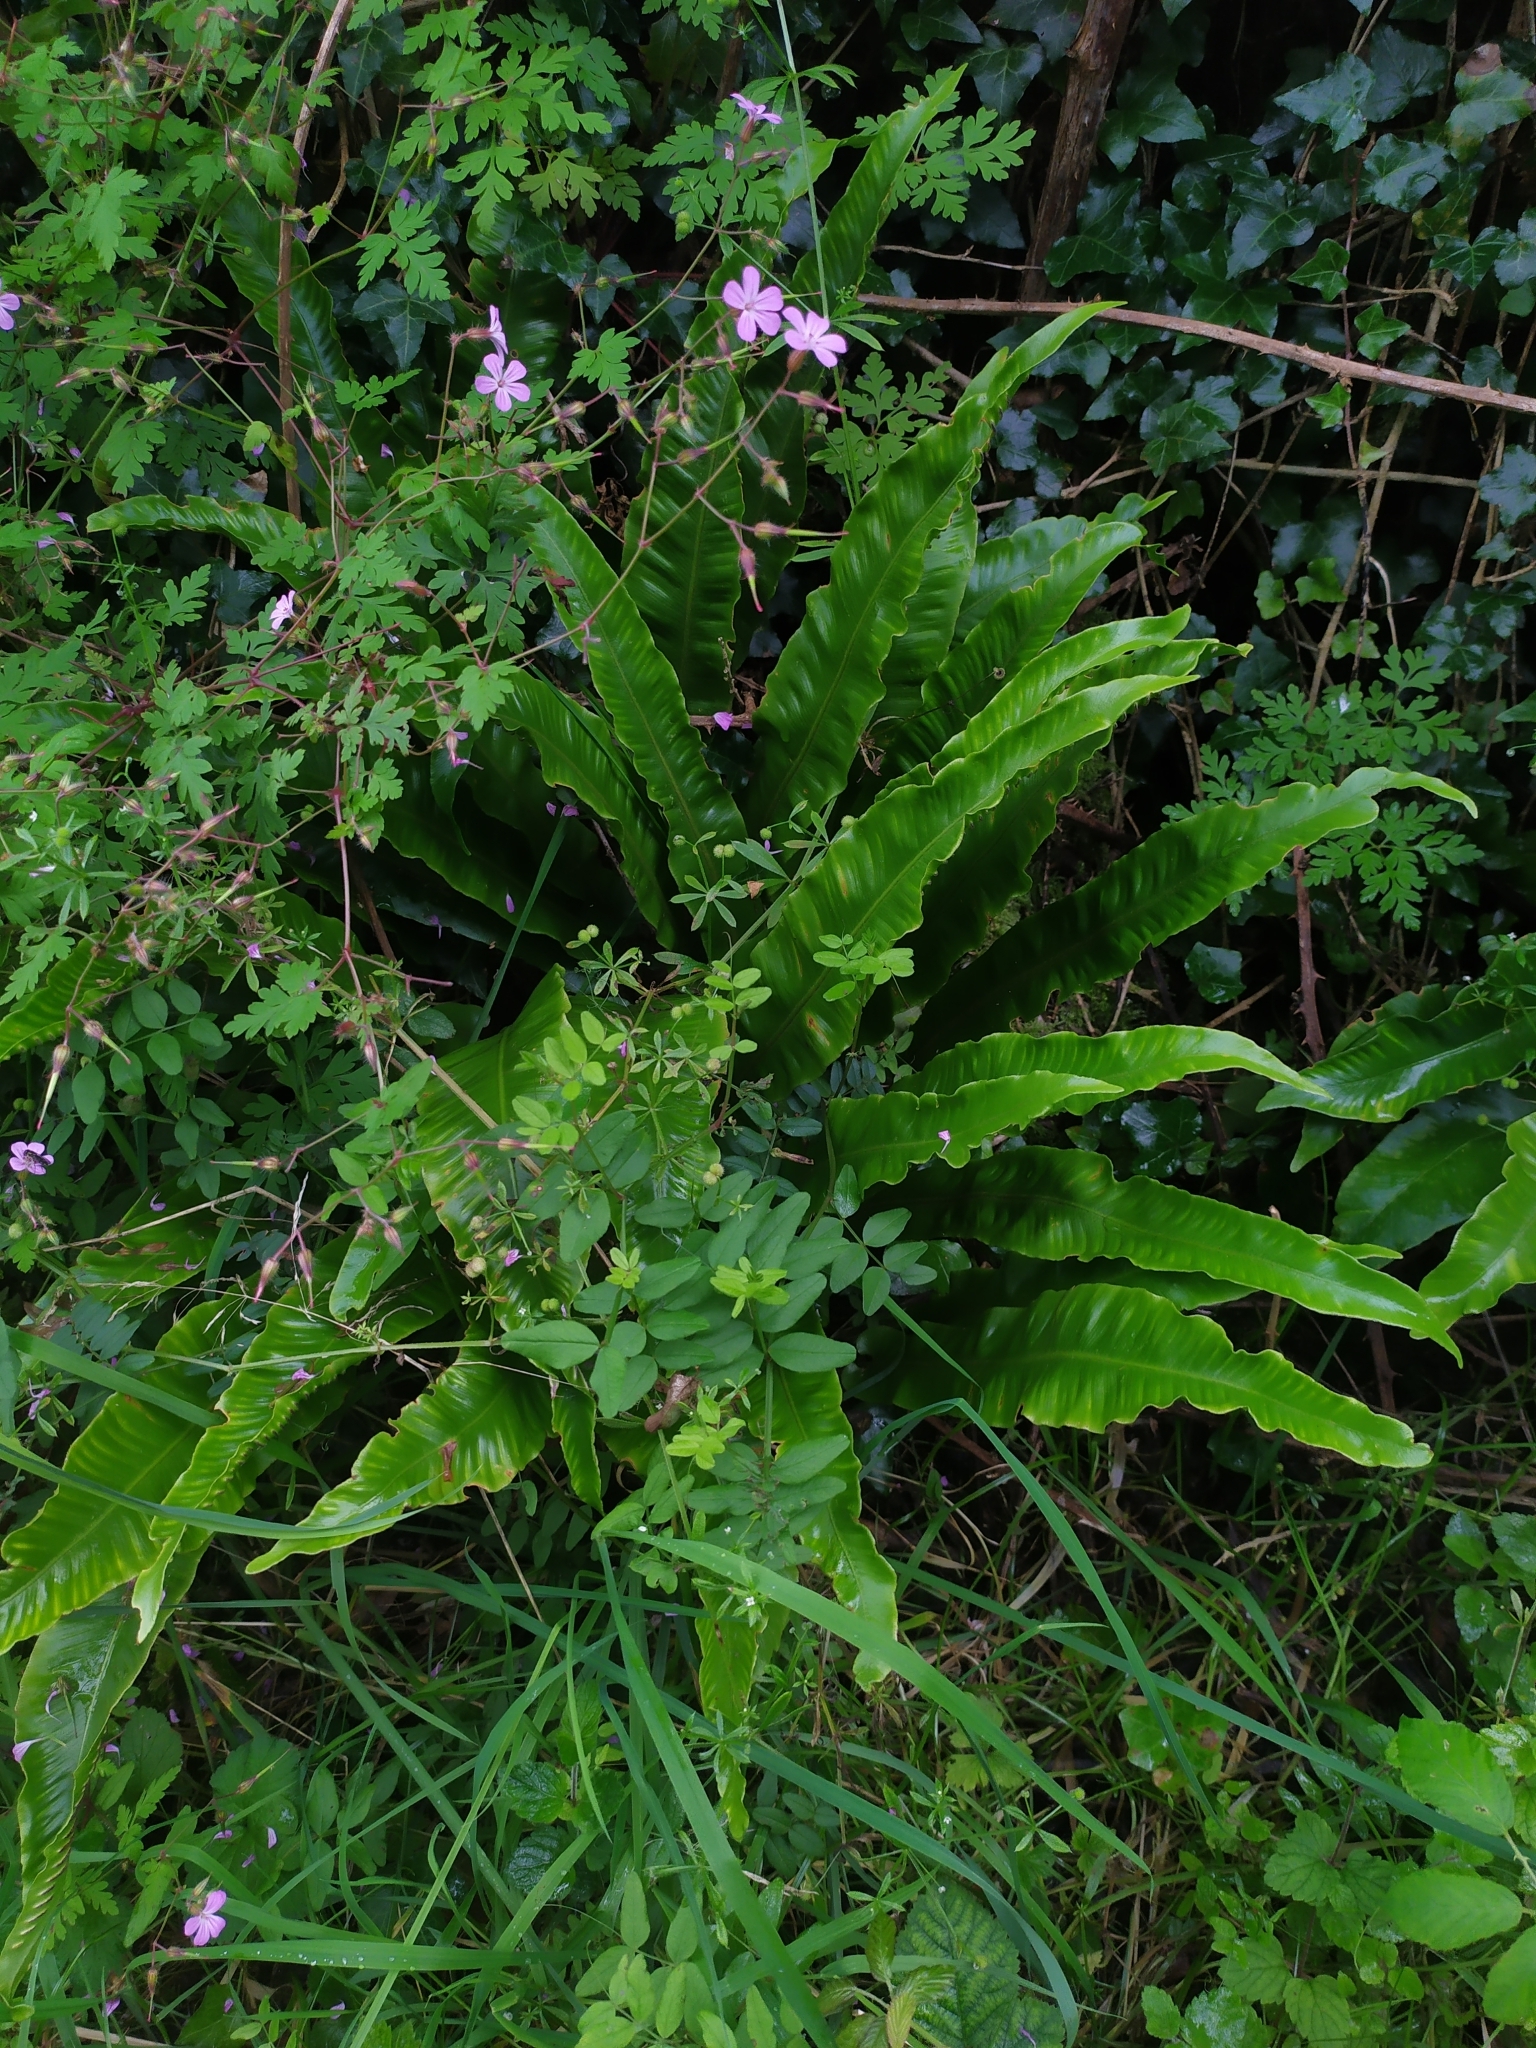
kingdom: Plantae
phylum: Tracheophyta
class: Polypodiopsida
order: Polypodiales
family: Aspleniaceae
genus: Asplenium
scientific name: Asplenium scolopendrium
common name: Hart's-tongue fern
